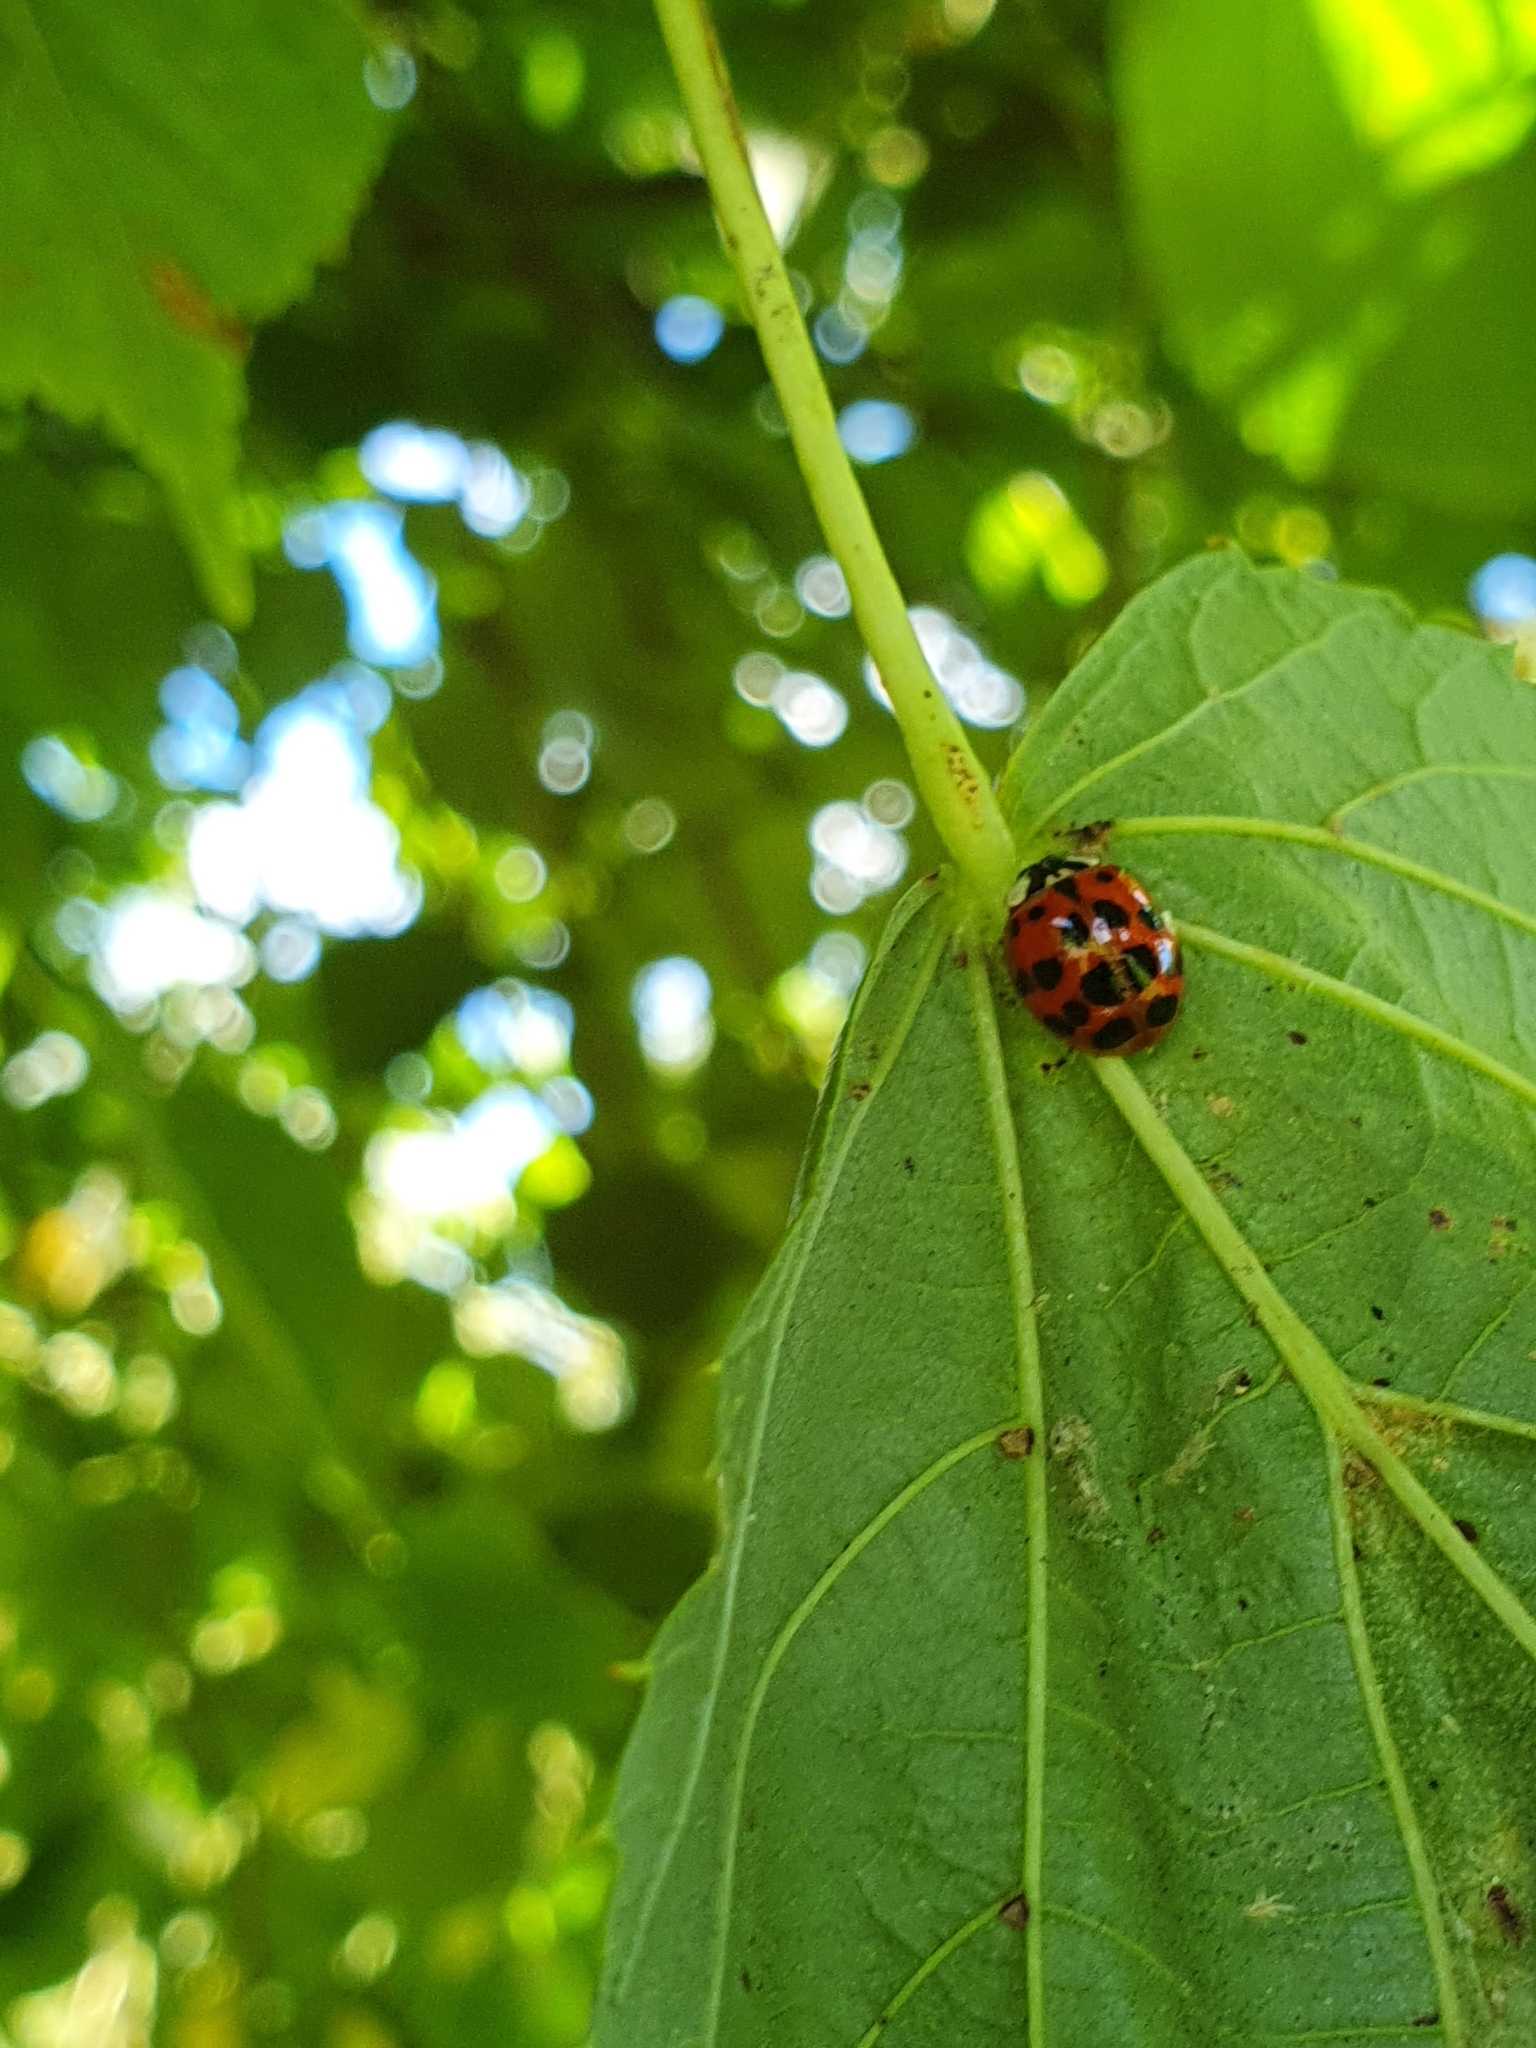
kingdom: Animalia
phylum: Arthropoda
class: Insecta
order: Coleoptera
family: Coccinellidae
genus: Harmonia
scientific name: Harmonia axyridis
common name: Harlequin ladybird
